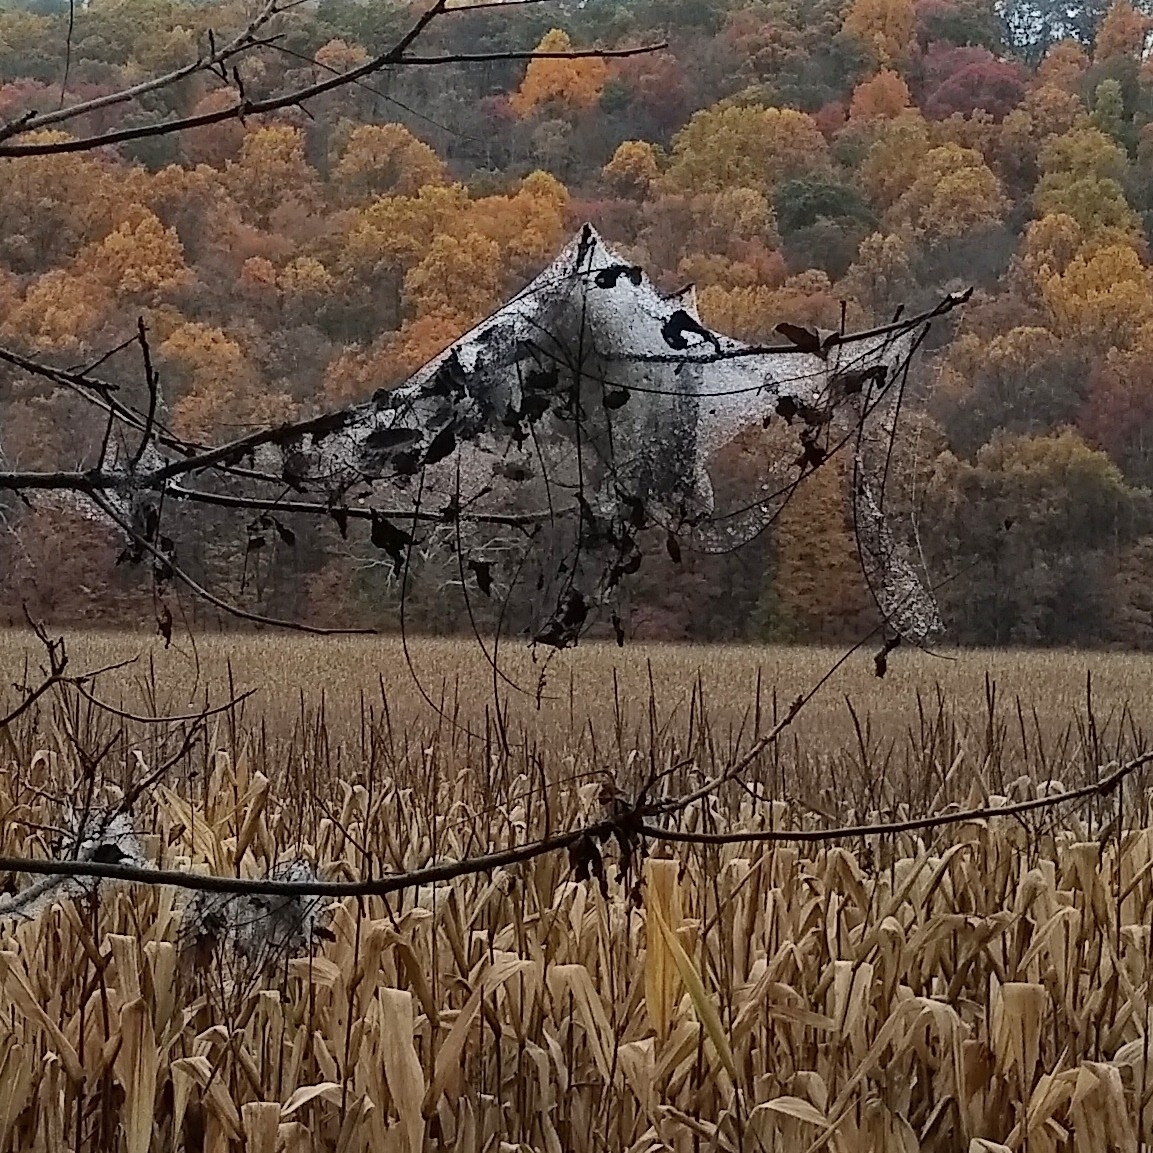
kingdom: Animalia
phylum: Arthropoda
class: Insecta
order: Lepidoptera
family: Erebidae
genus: Hyphantria
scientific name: Hyphantria cunea
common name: American white moth
